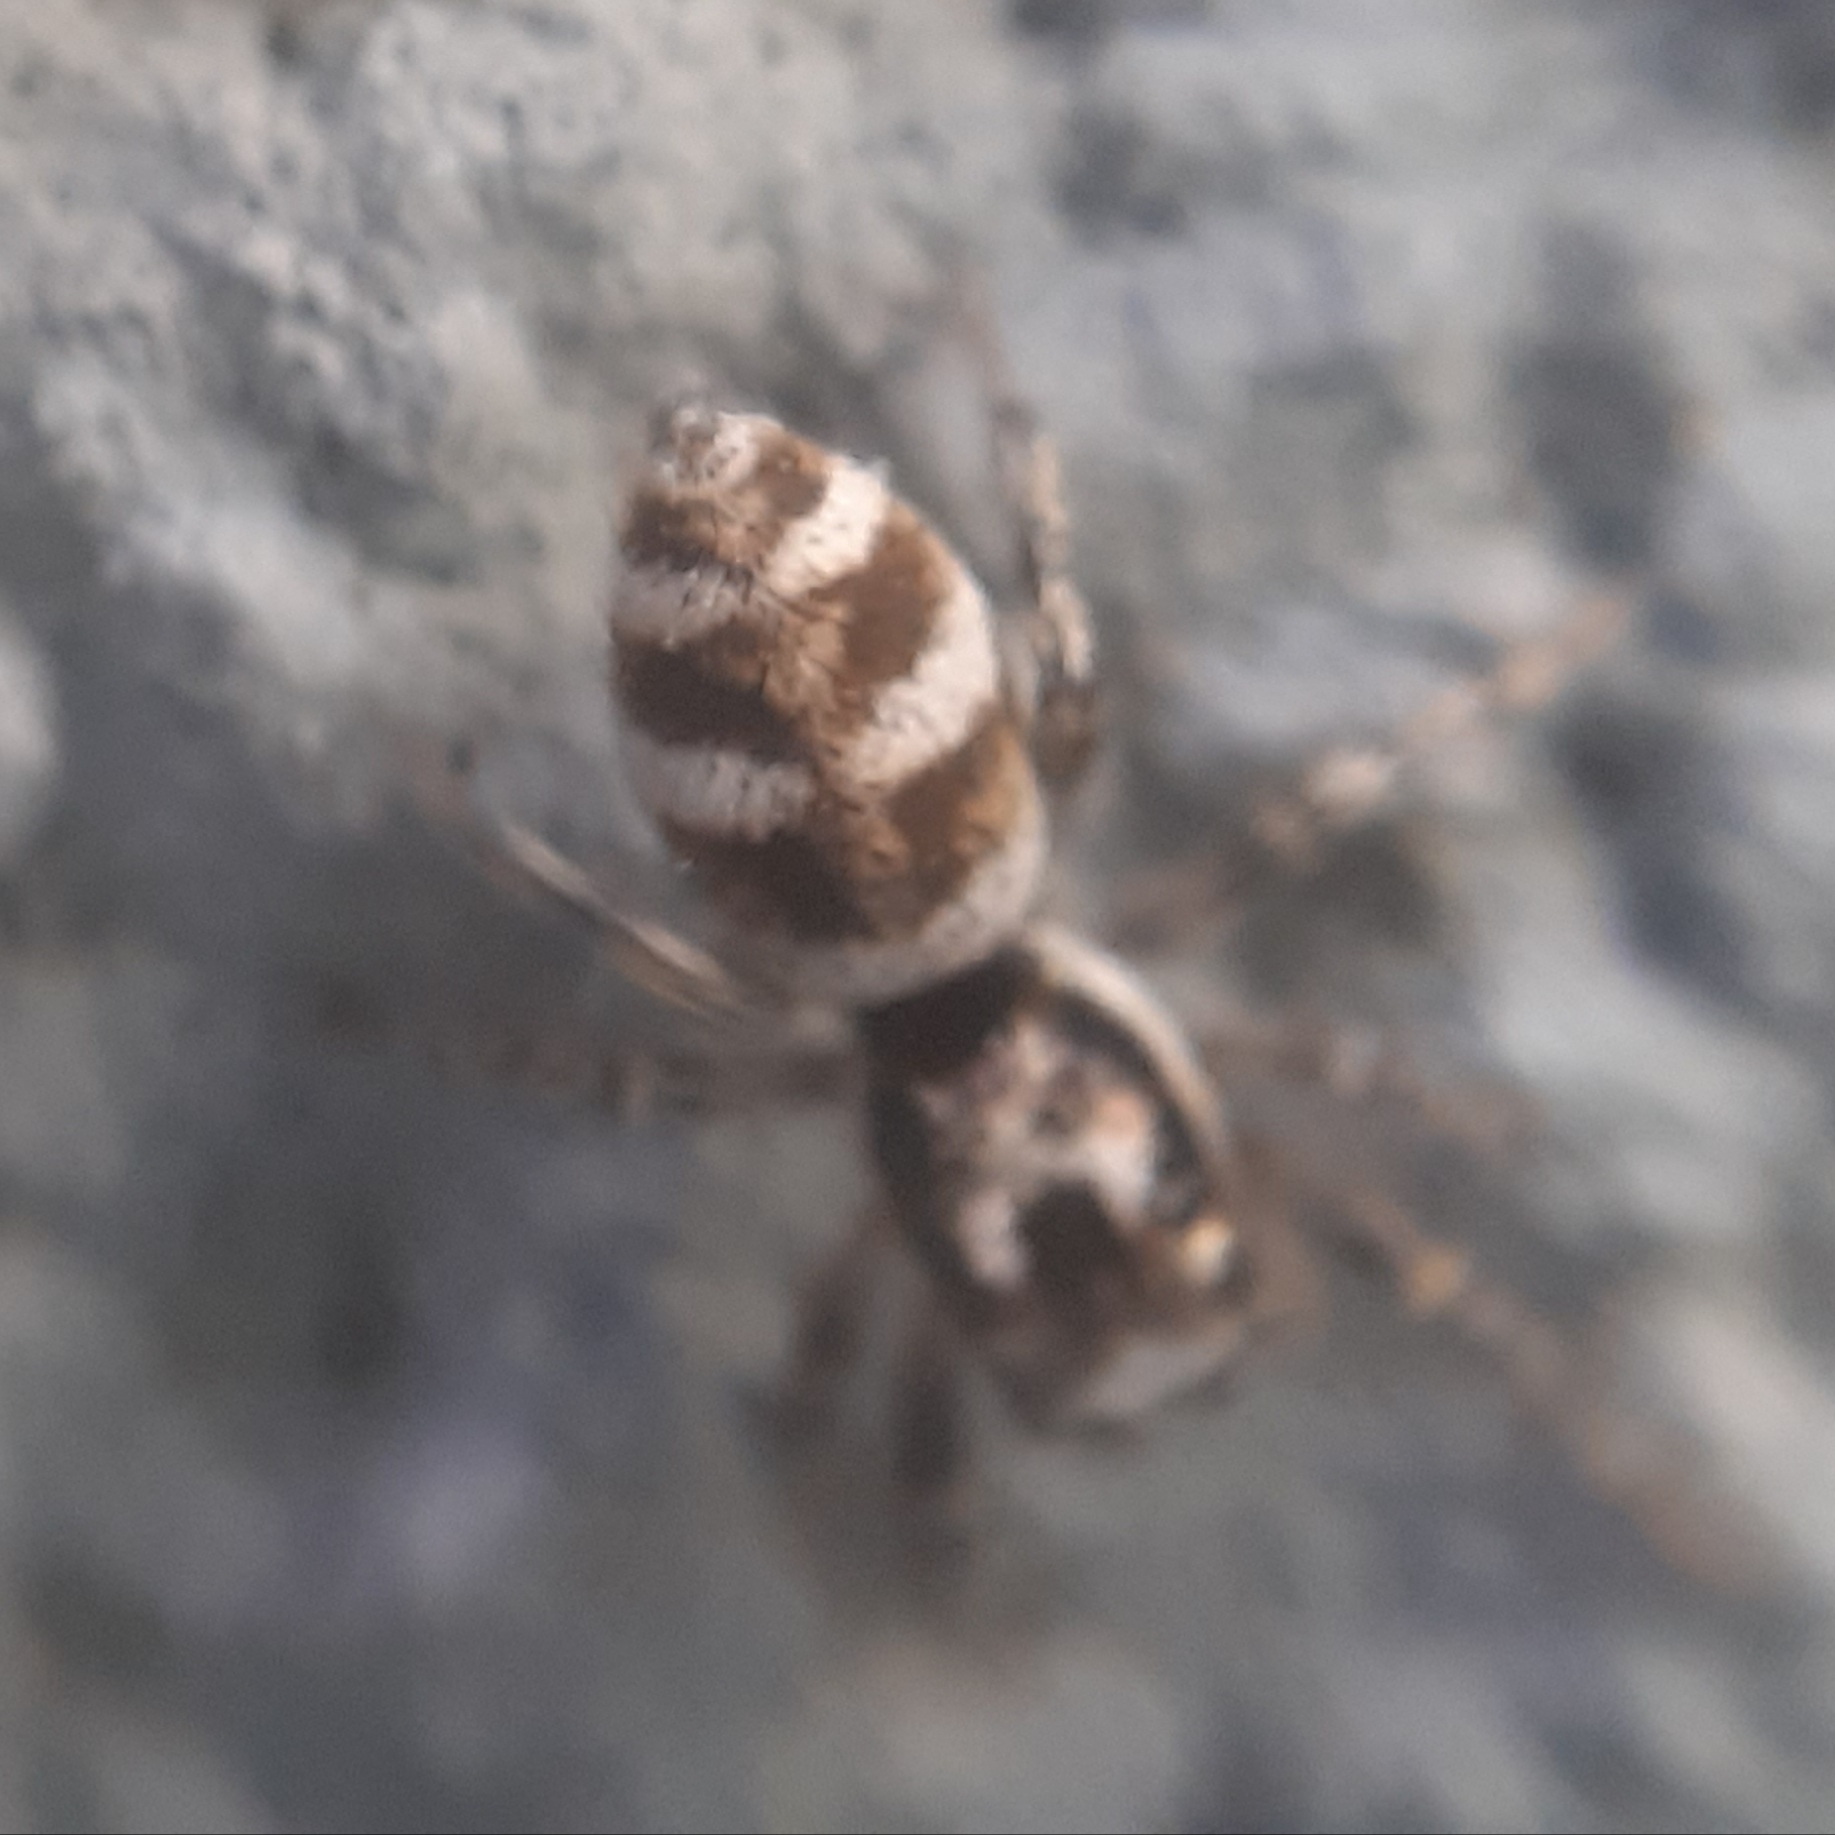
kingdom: Animalia
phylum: Arthropoda
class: Arachnida
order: Araneae
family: Salticidae
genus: Salticus
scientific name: Salticus scenicus
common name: Zebra jumper
